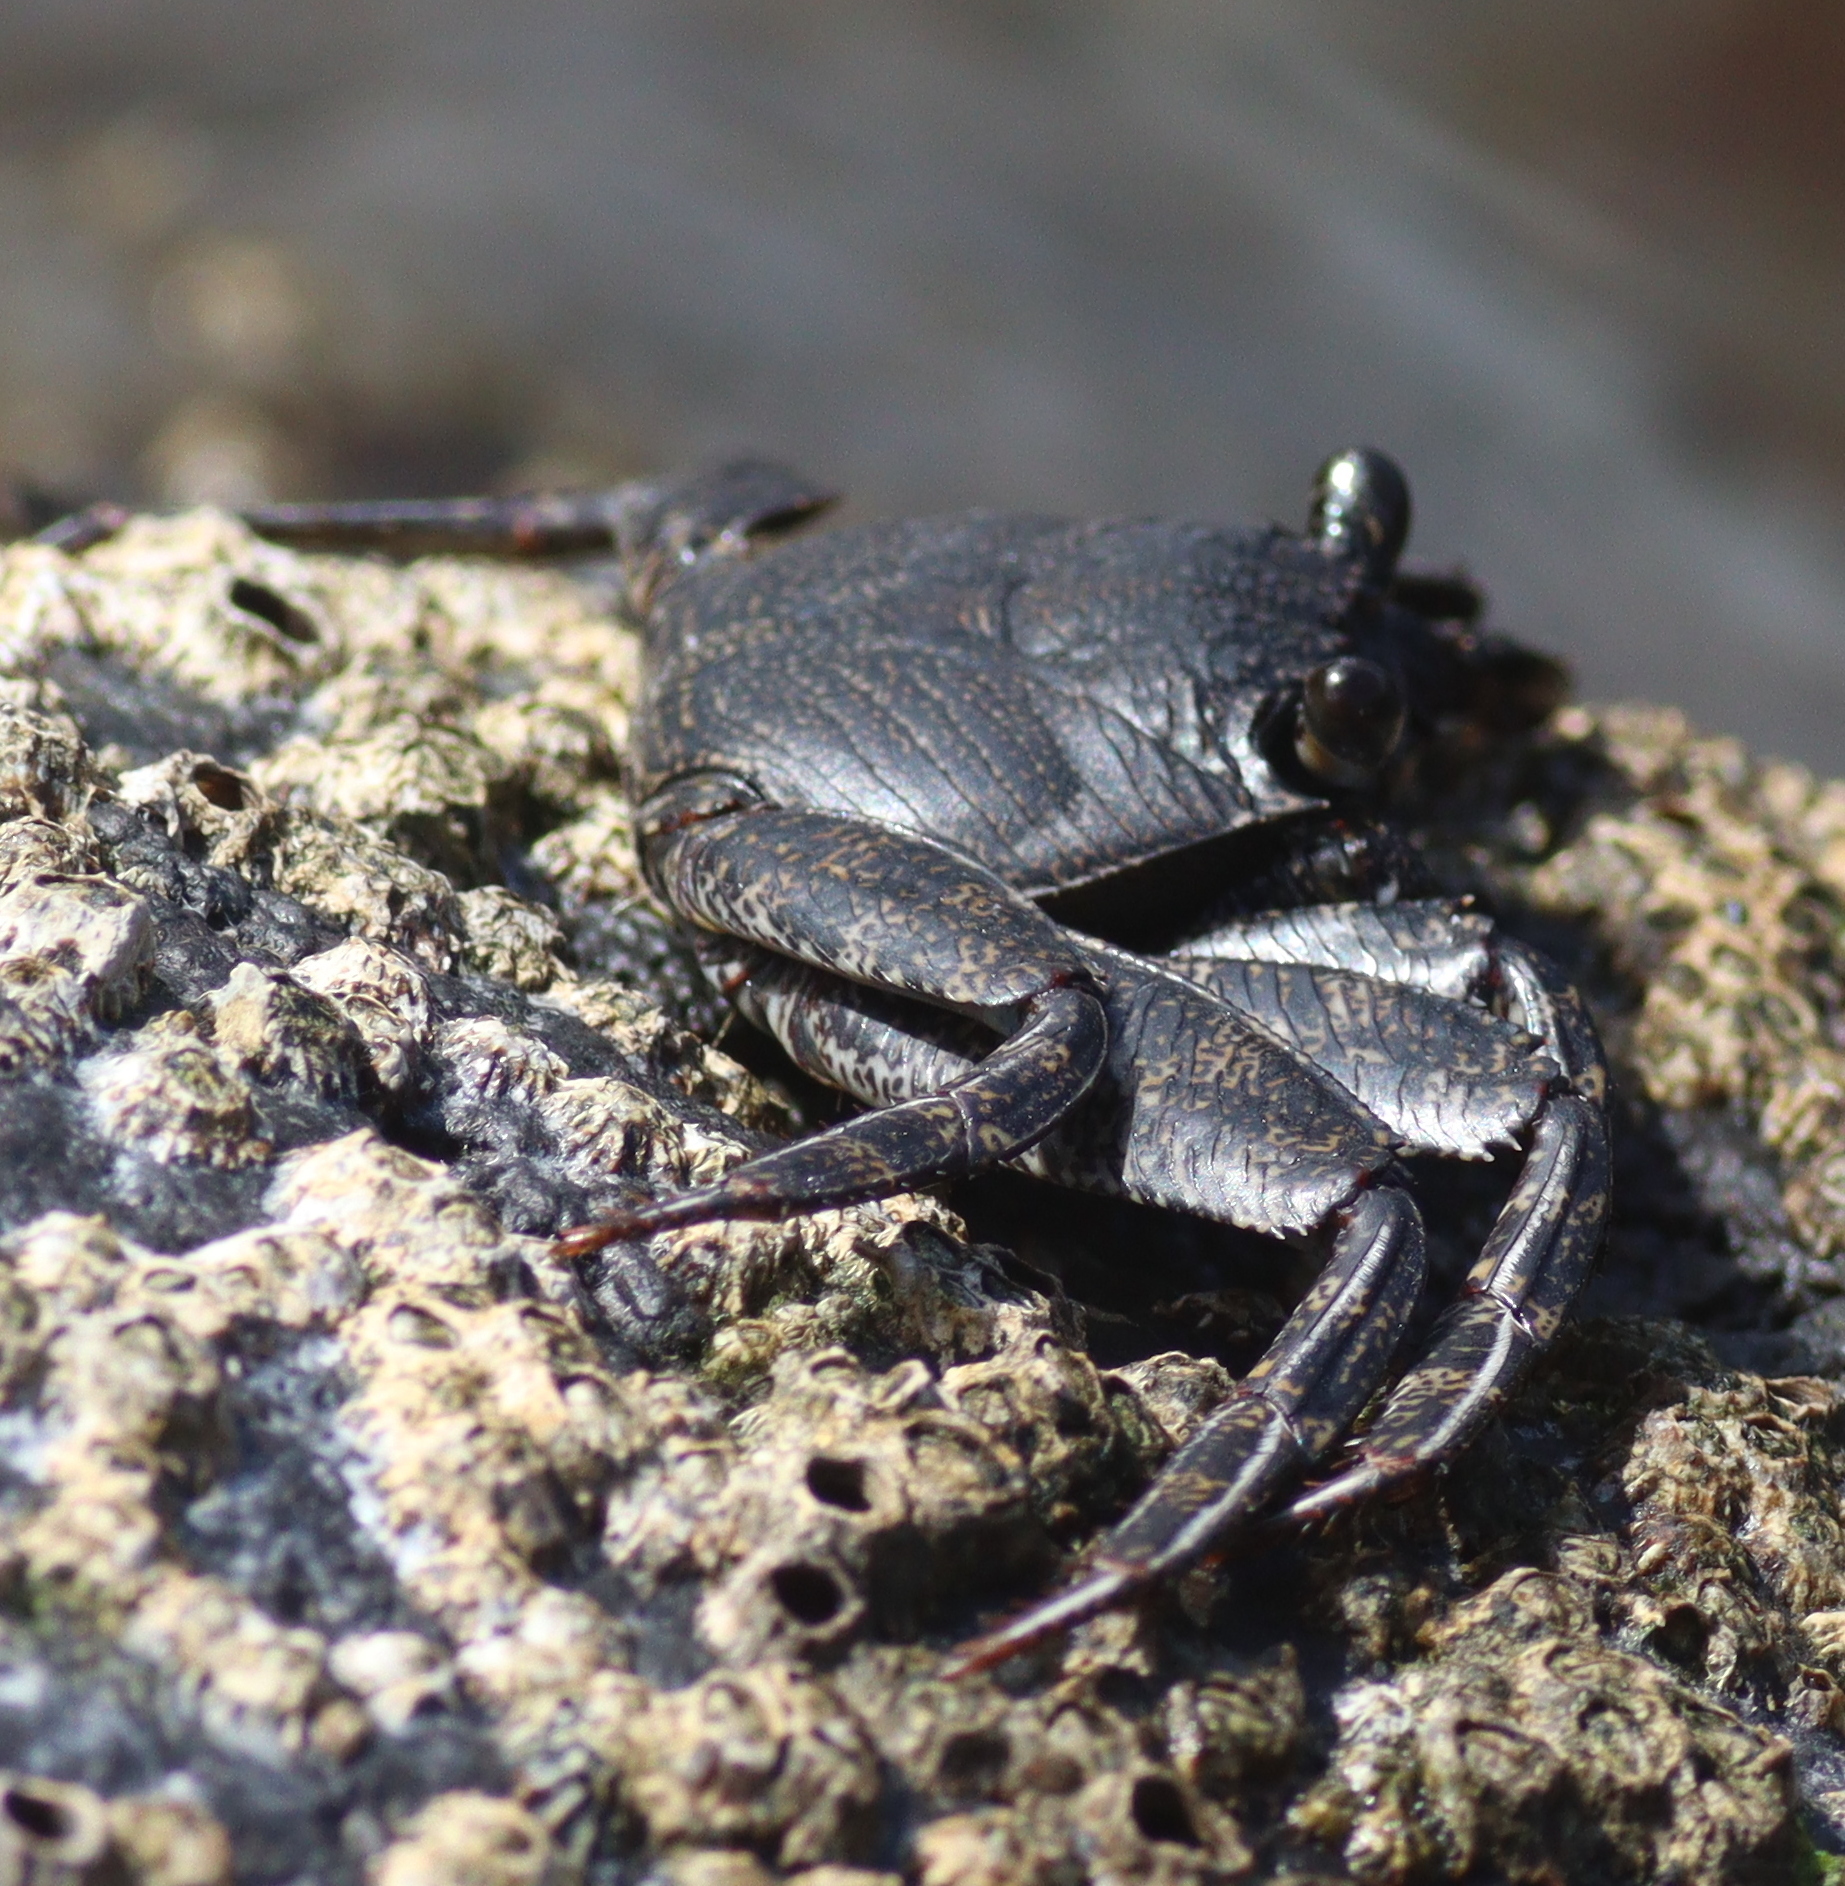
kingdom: Animalia
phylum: Arthropoda
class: Malacostraca
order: Decapoda
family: Grapsidae
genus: Grapsus
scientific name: Grapsus adscensionis
